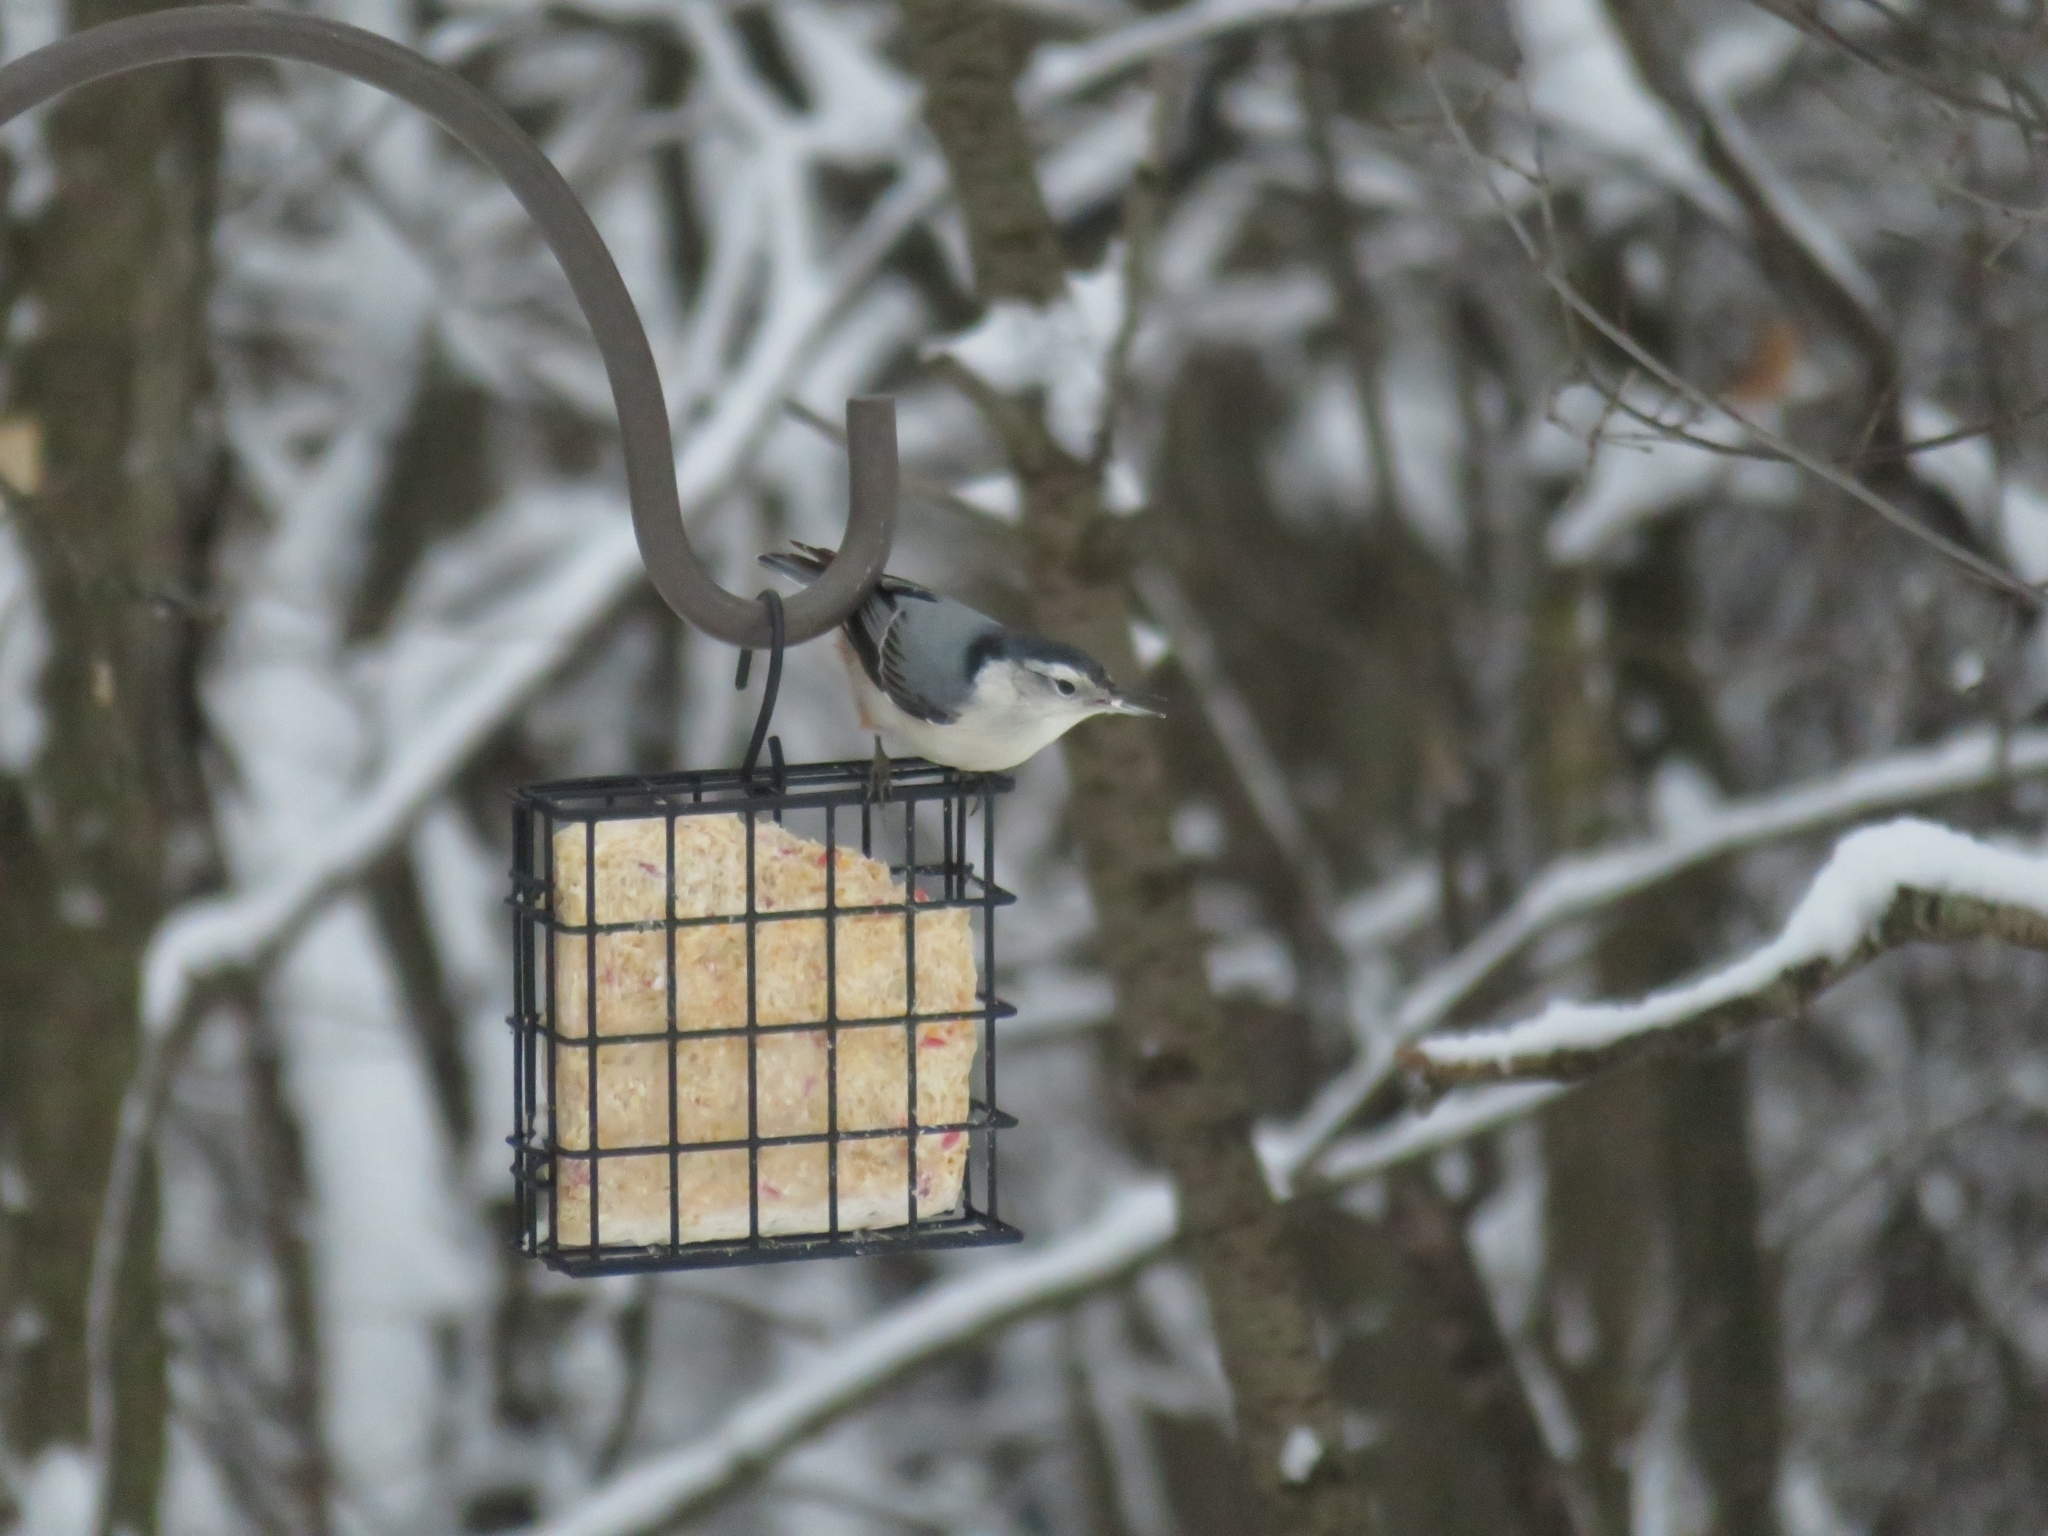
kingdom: Animalia
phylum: Chordata
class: Aves
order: Passeriformes
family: Sittidae
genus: Sitta
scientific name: Sitta carolinensis
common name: White-breasted nuthatch
